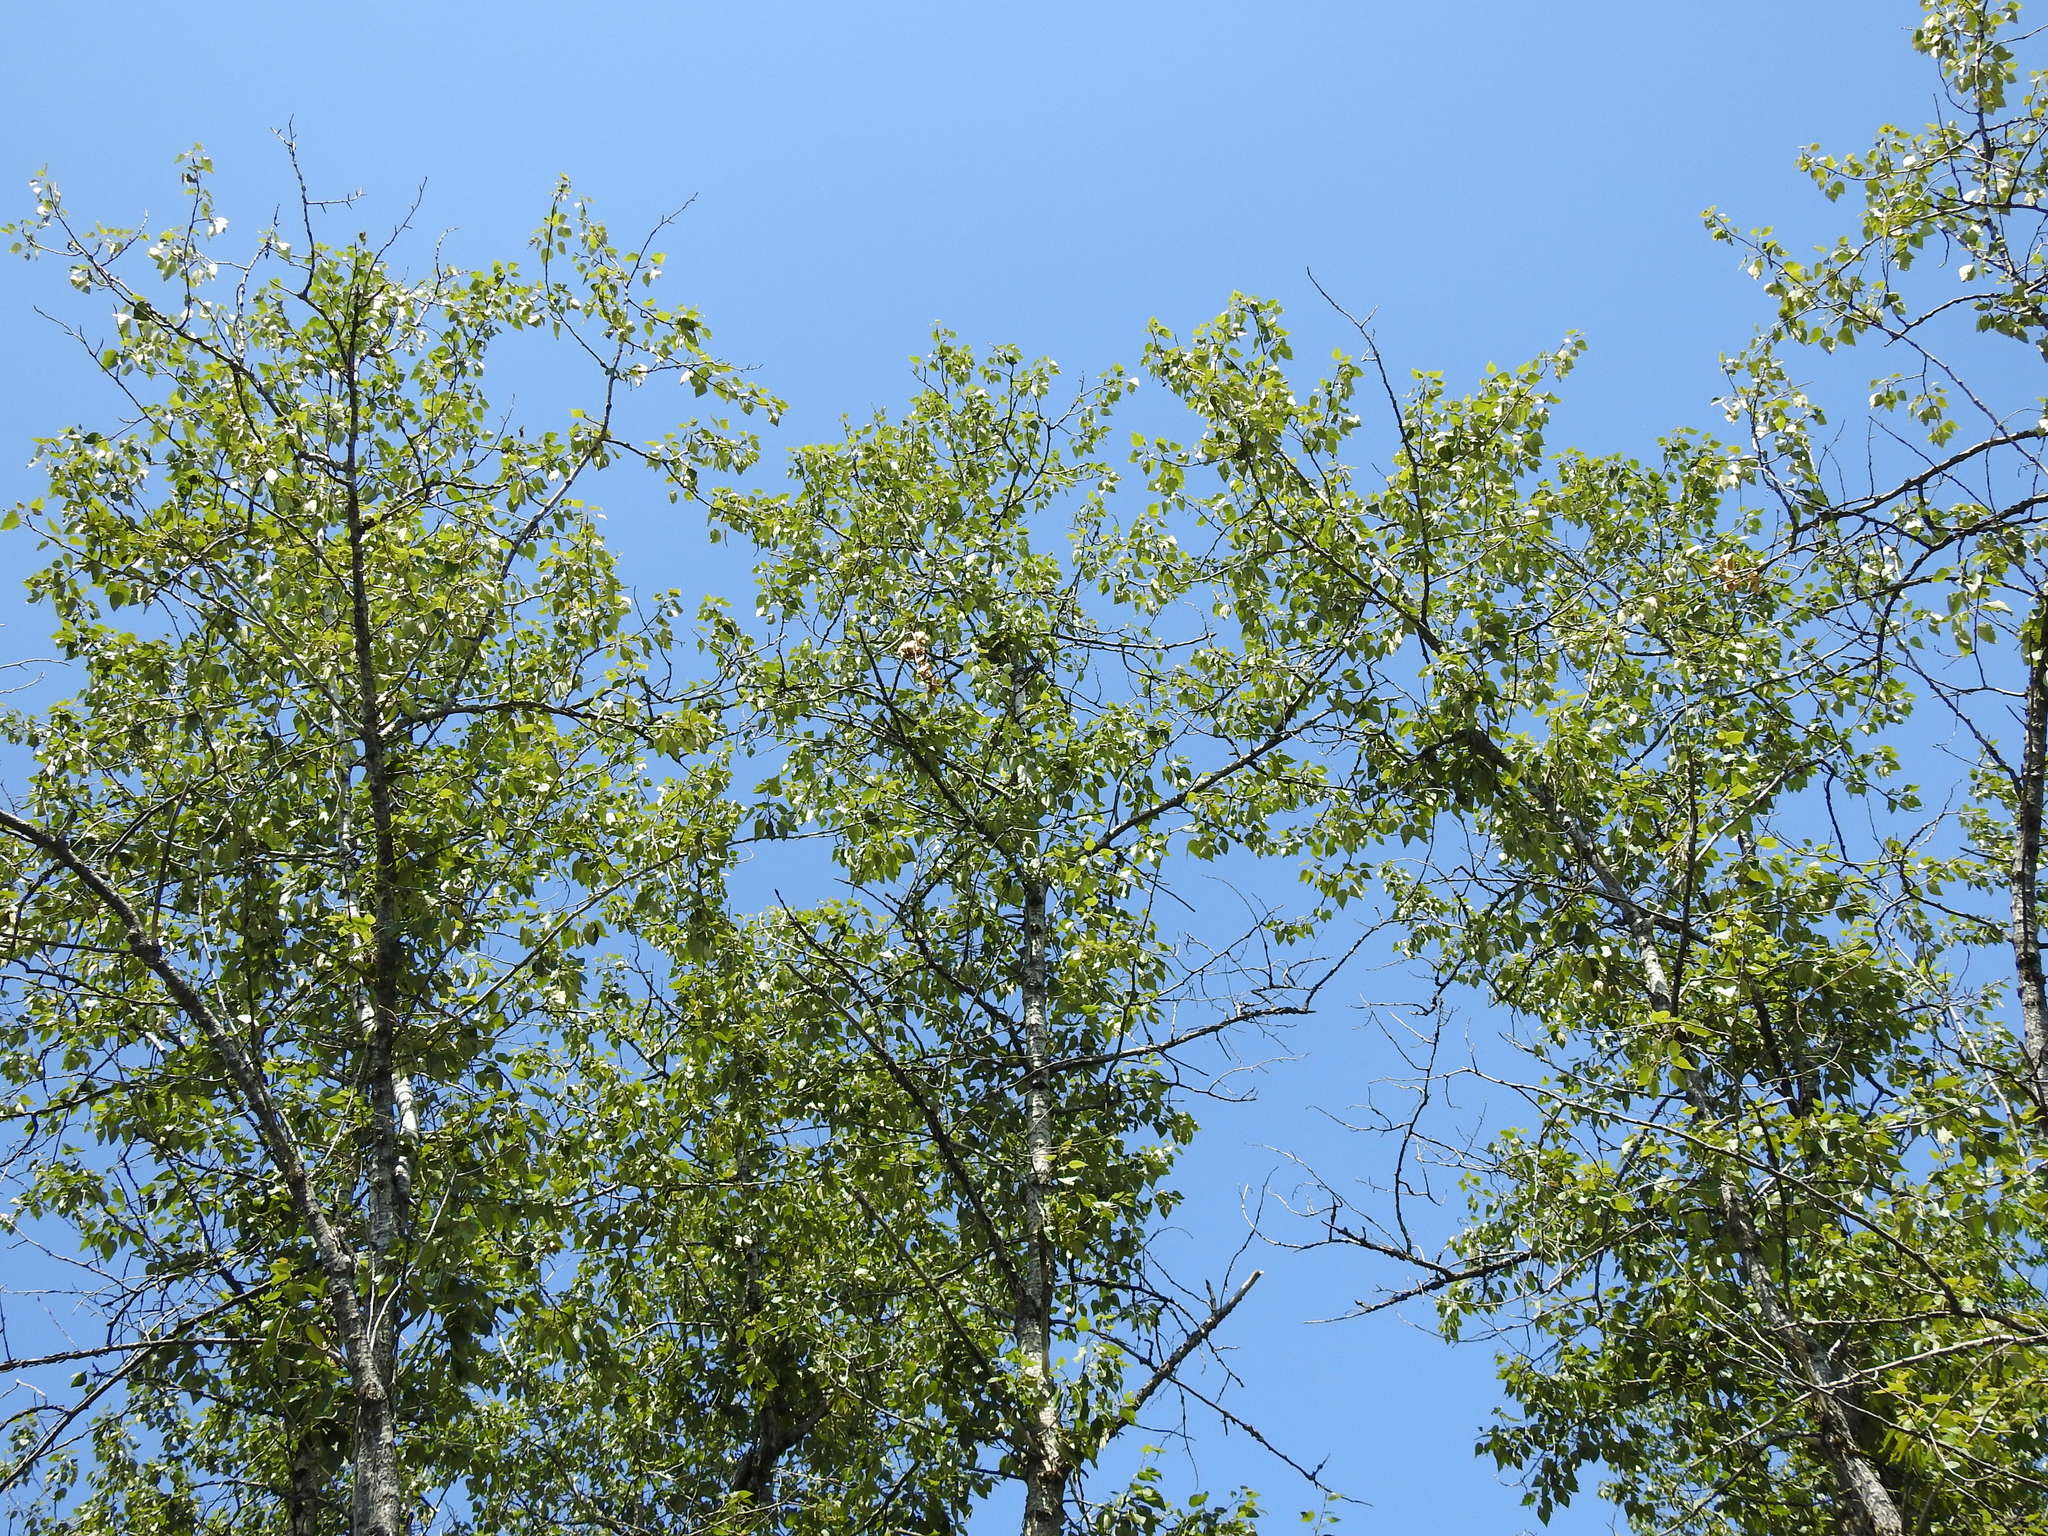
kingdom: Plantae
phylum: Tracheophyta
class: Magnoliopsida
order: Malpighiales
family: Salicaceae
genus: Populus
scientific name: Populus balsamifera
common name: Balsam poplar
